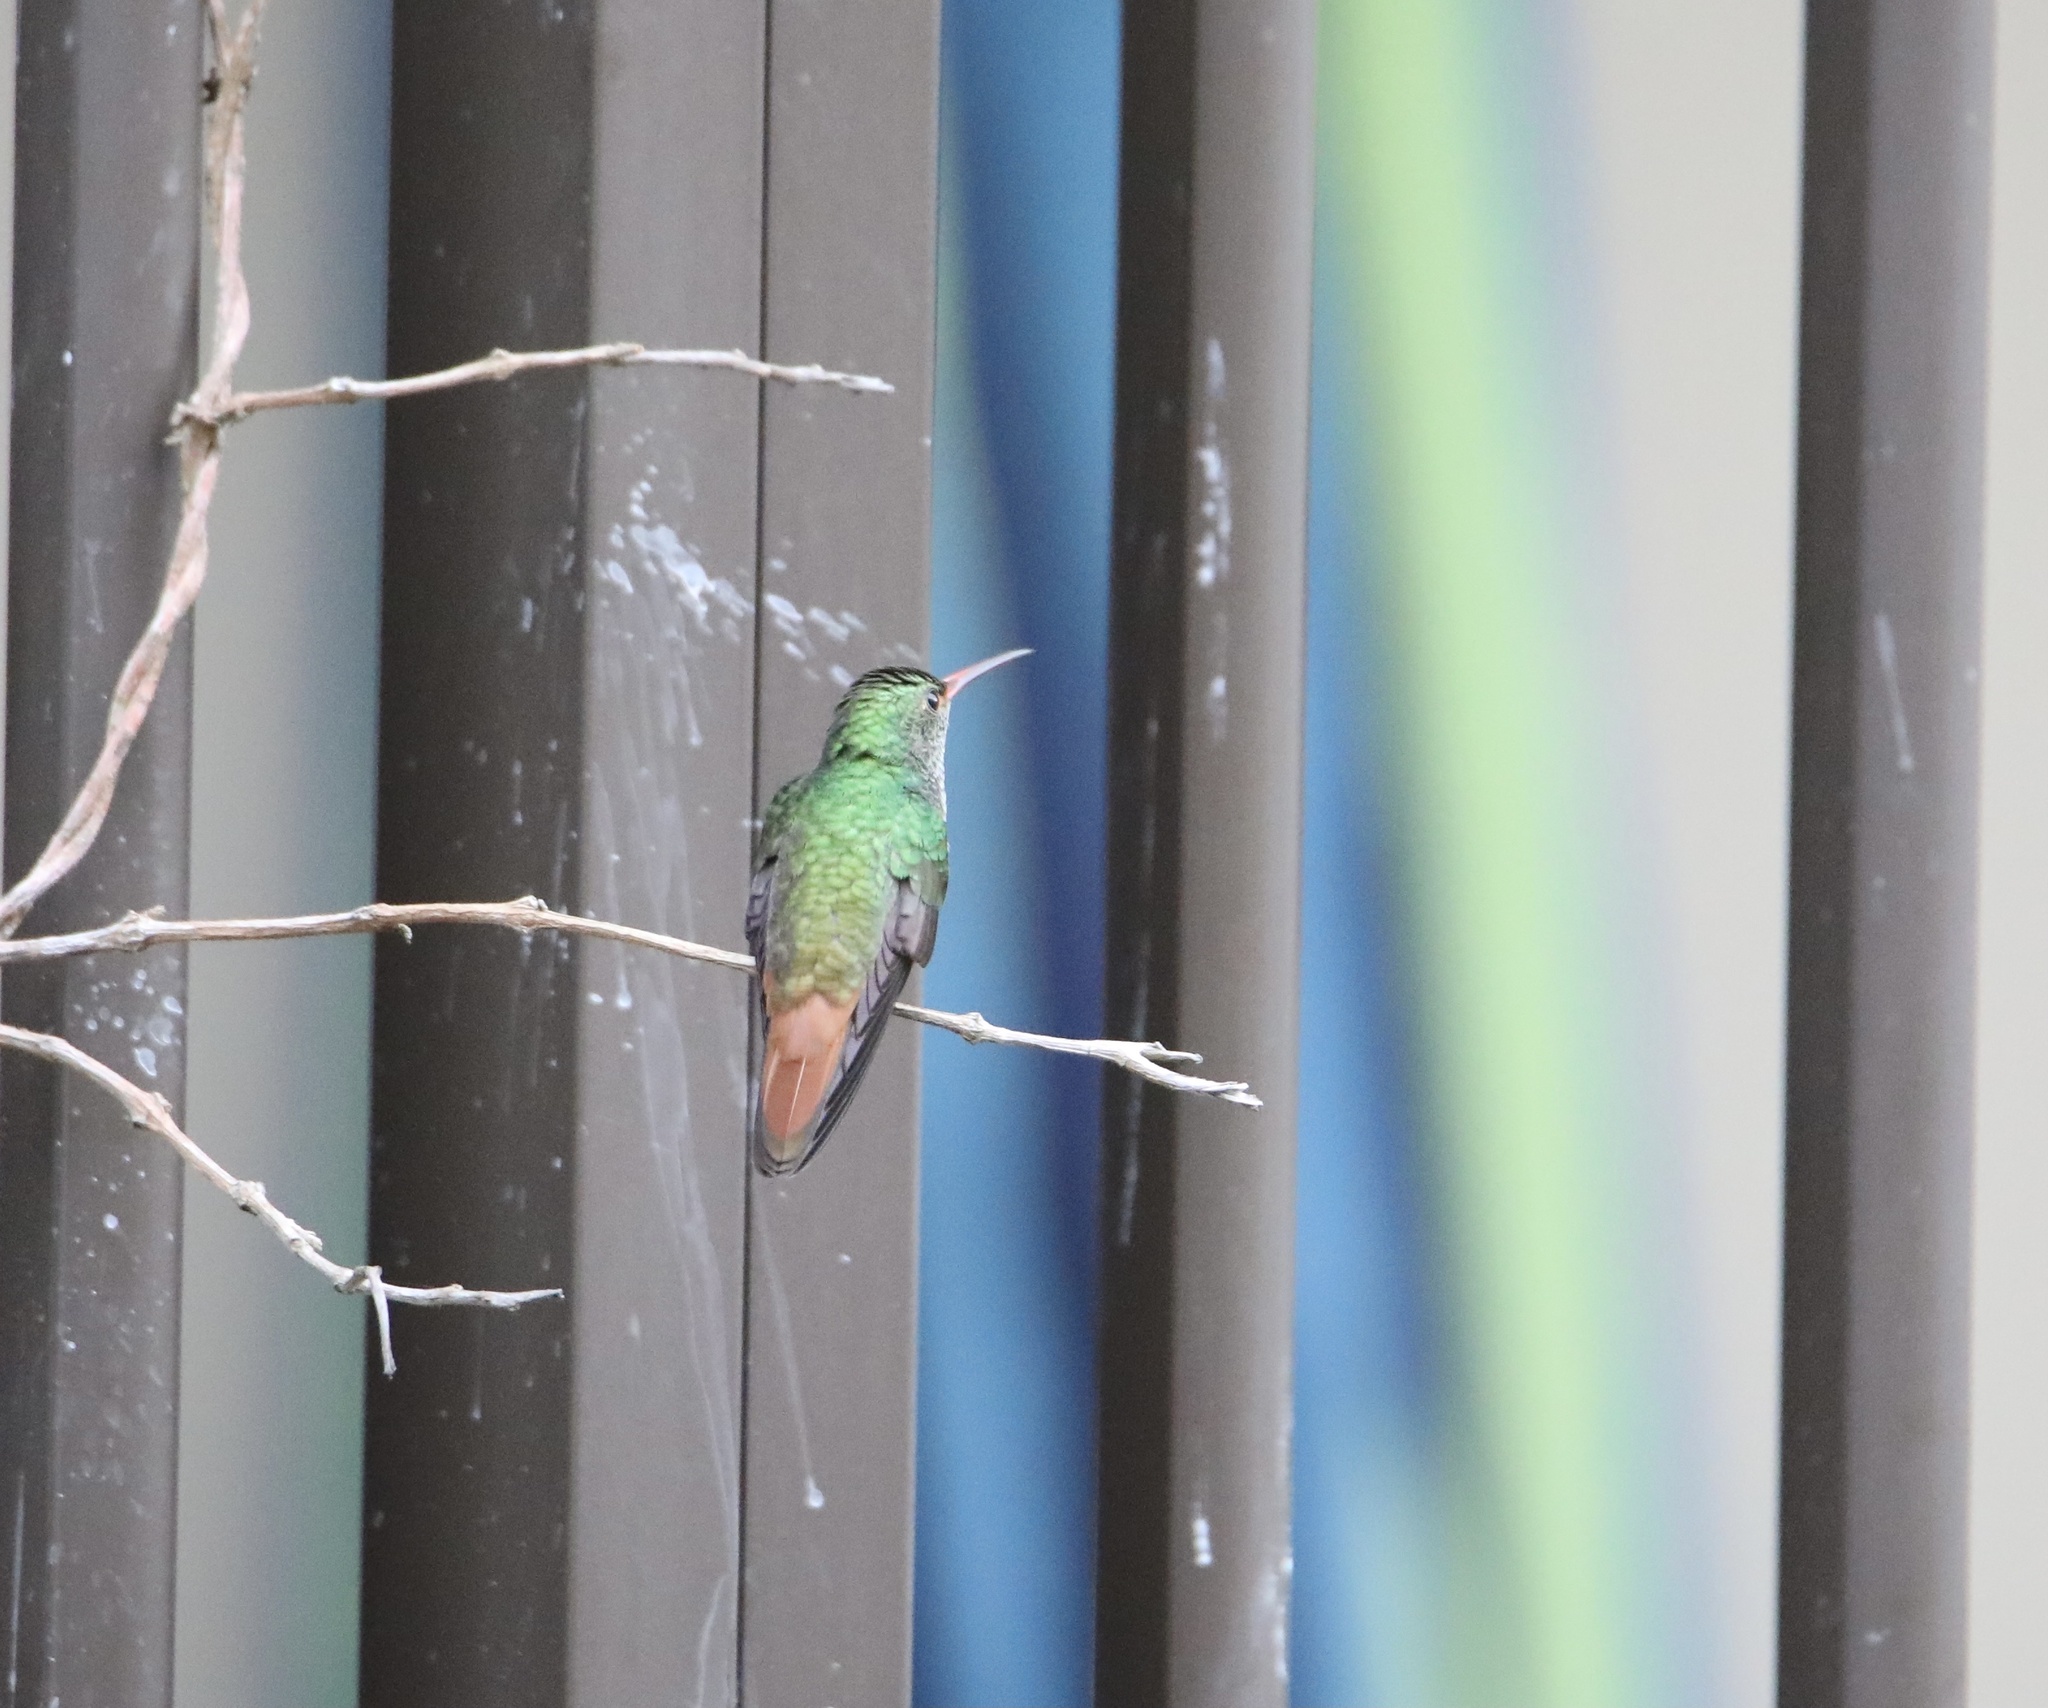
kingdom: Animalia
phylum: Chordata
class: Aves
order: Apodiformes
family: Trochilidae
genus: Amazilia
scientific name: Amazilia tzacatl
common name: Rufous-tailed hummingbird
